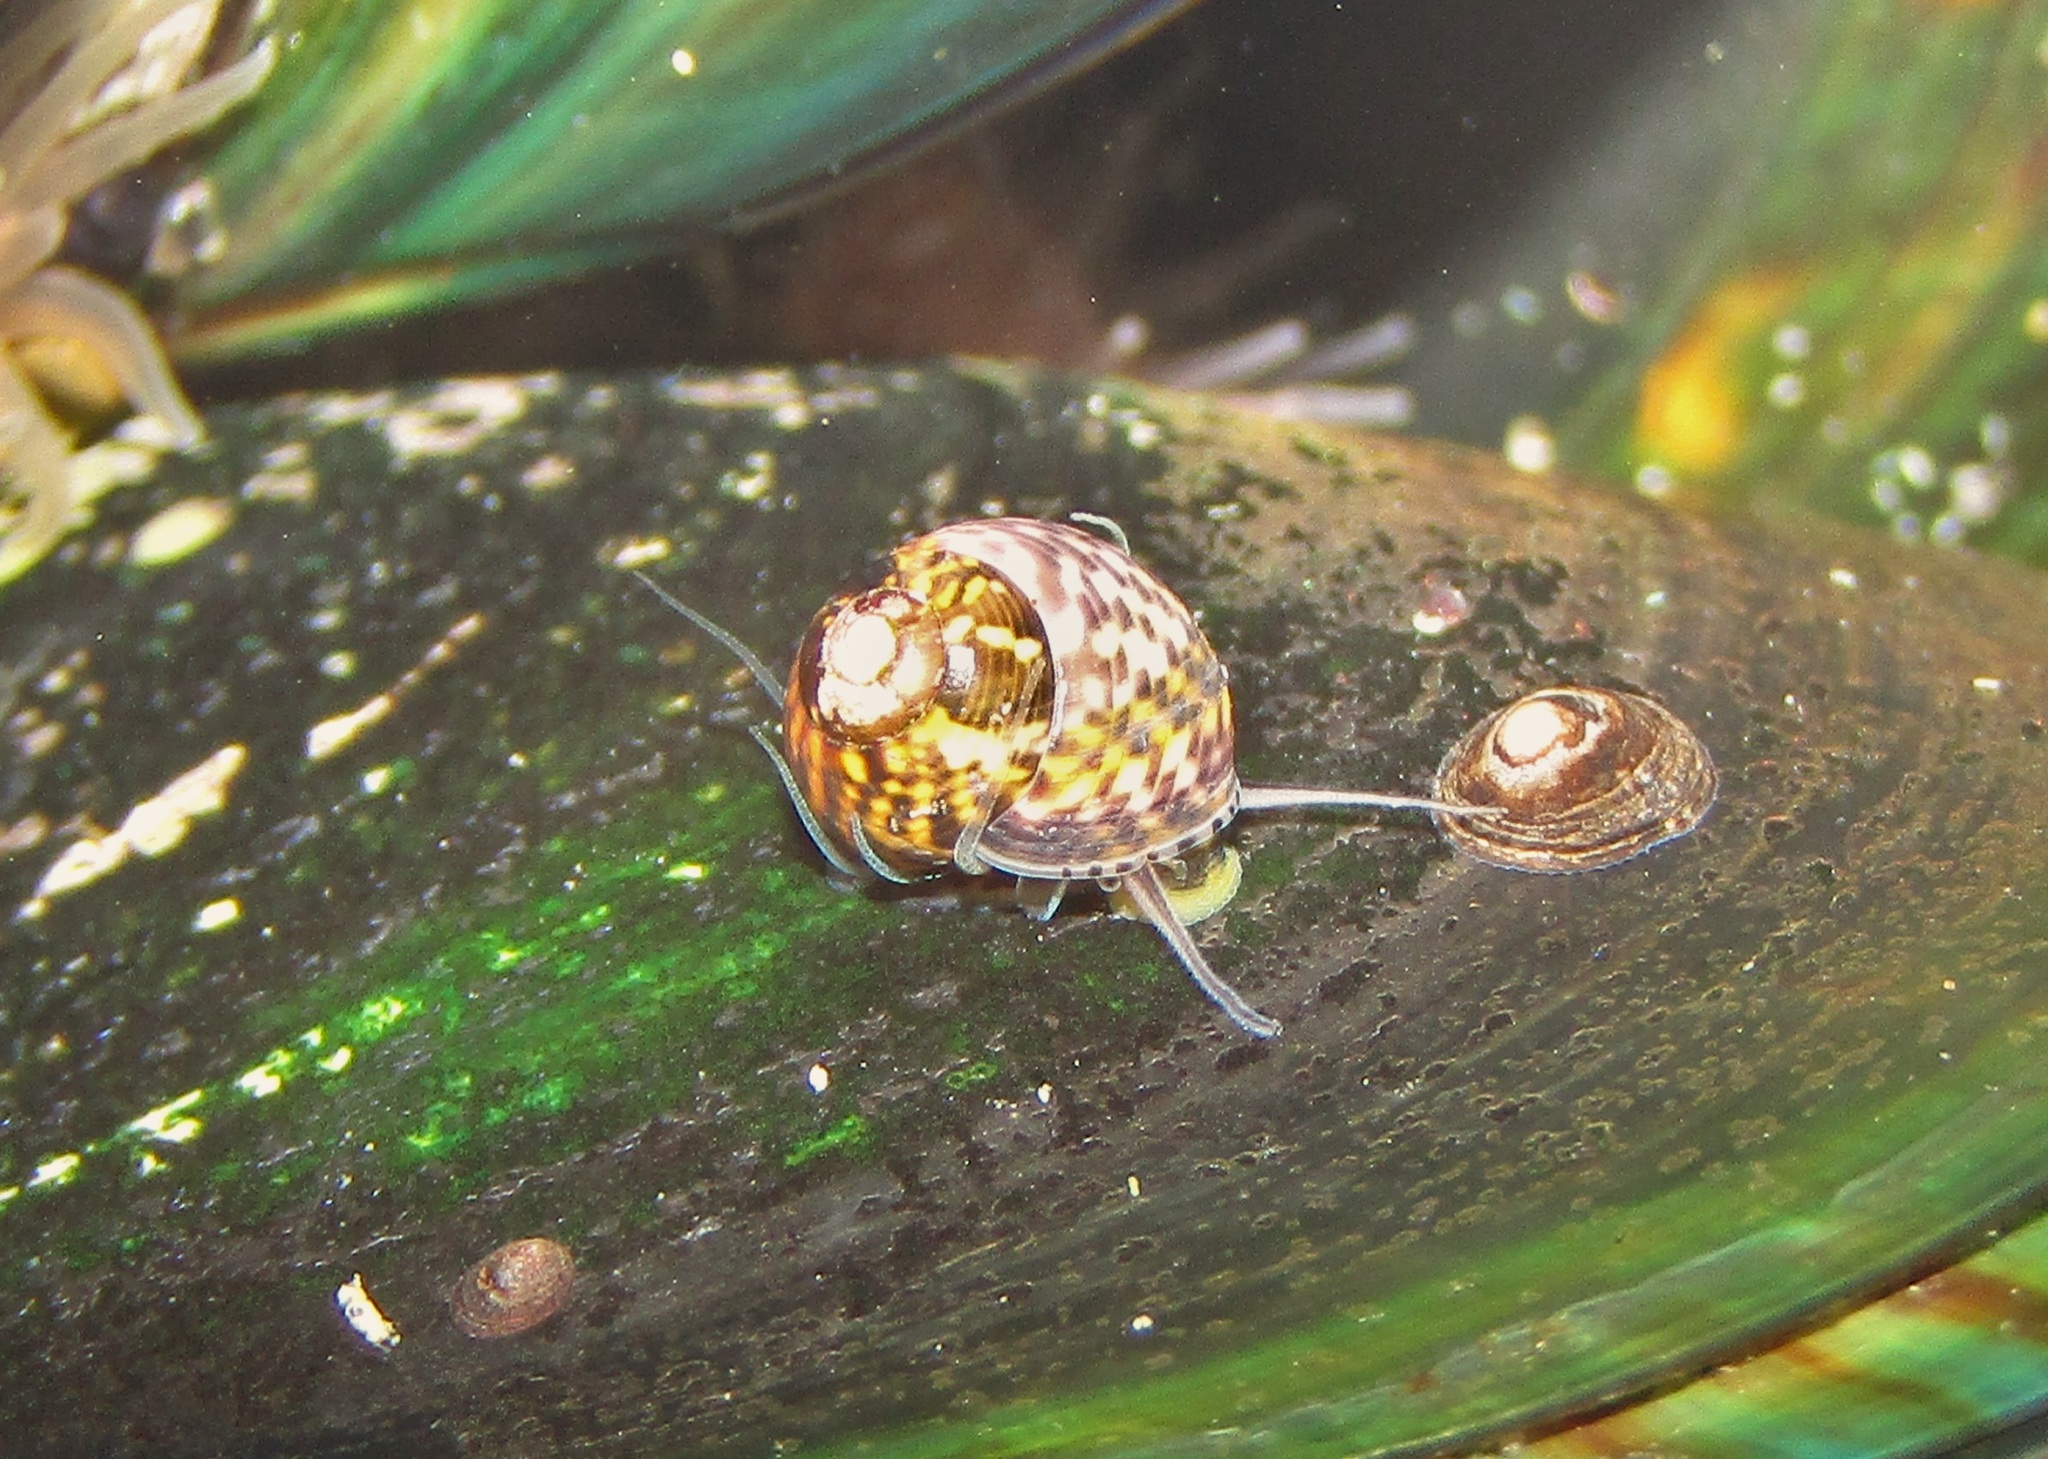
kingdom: Animalia
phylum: Mollusca
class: Gastropoda
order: Trochida
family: Trochidae
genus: Micrelenchus
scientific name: Micrelenchus tessellatus
